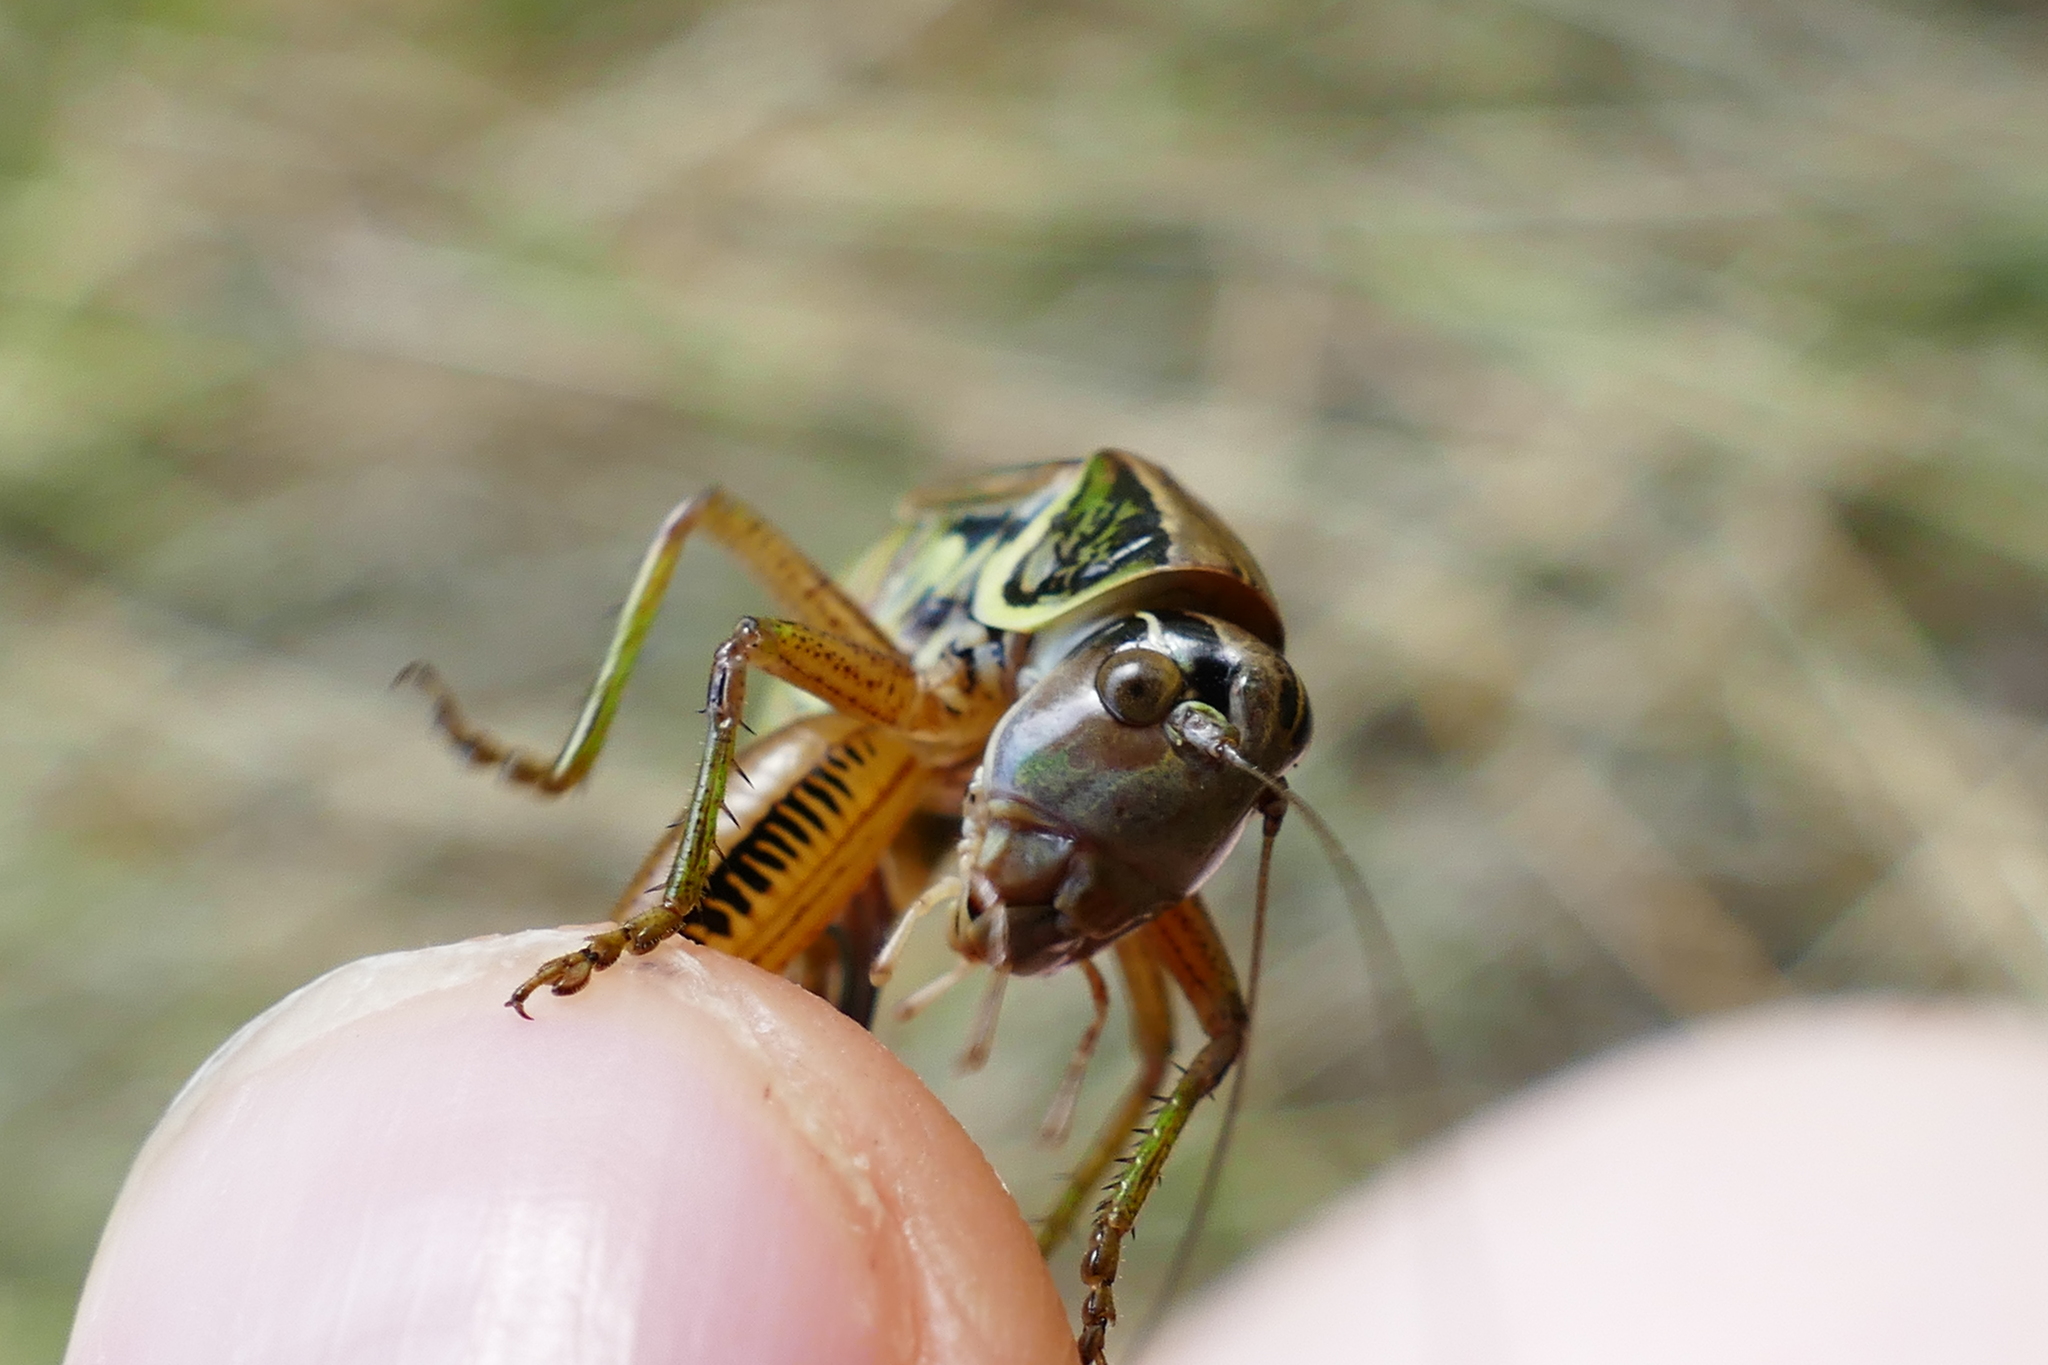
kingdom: Animalia
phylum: Arthropoda
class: Insecta
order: Orthoptera
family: Tettigoniidae
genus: Roeseliana
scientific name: Roeseliana roeselii
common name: Roesel's bush cricket
